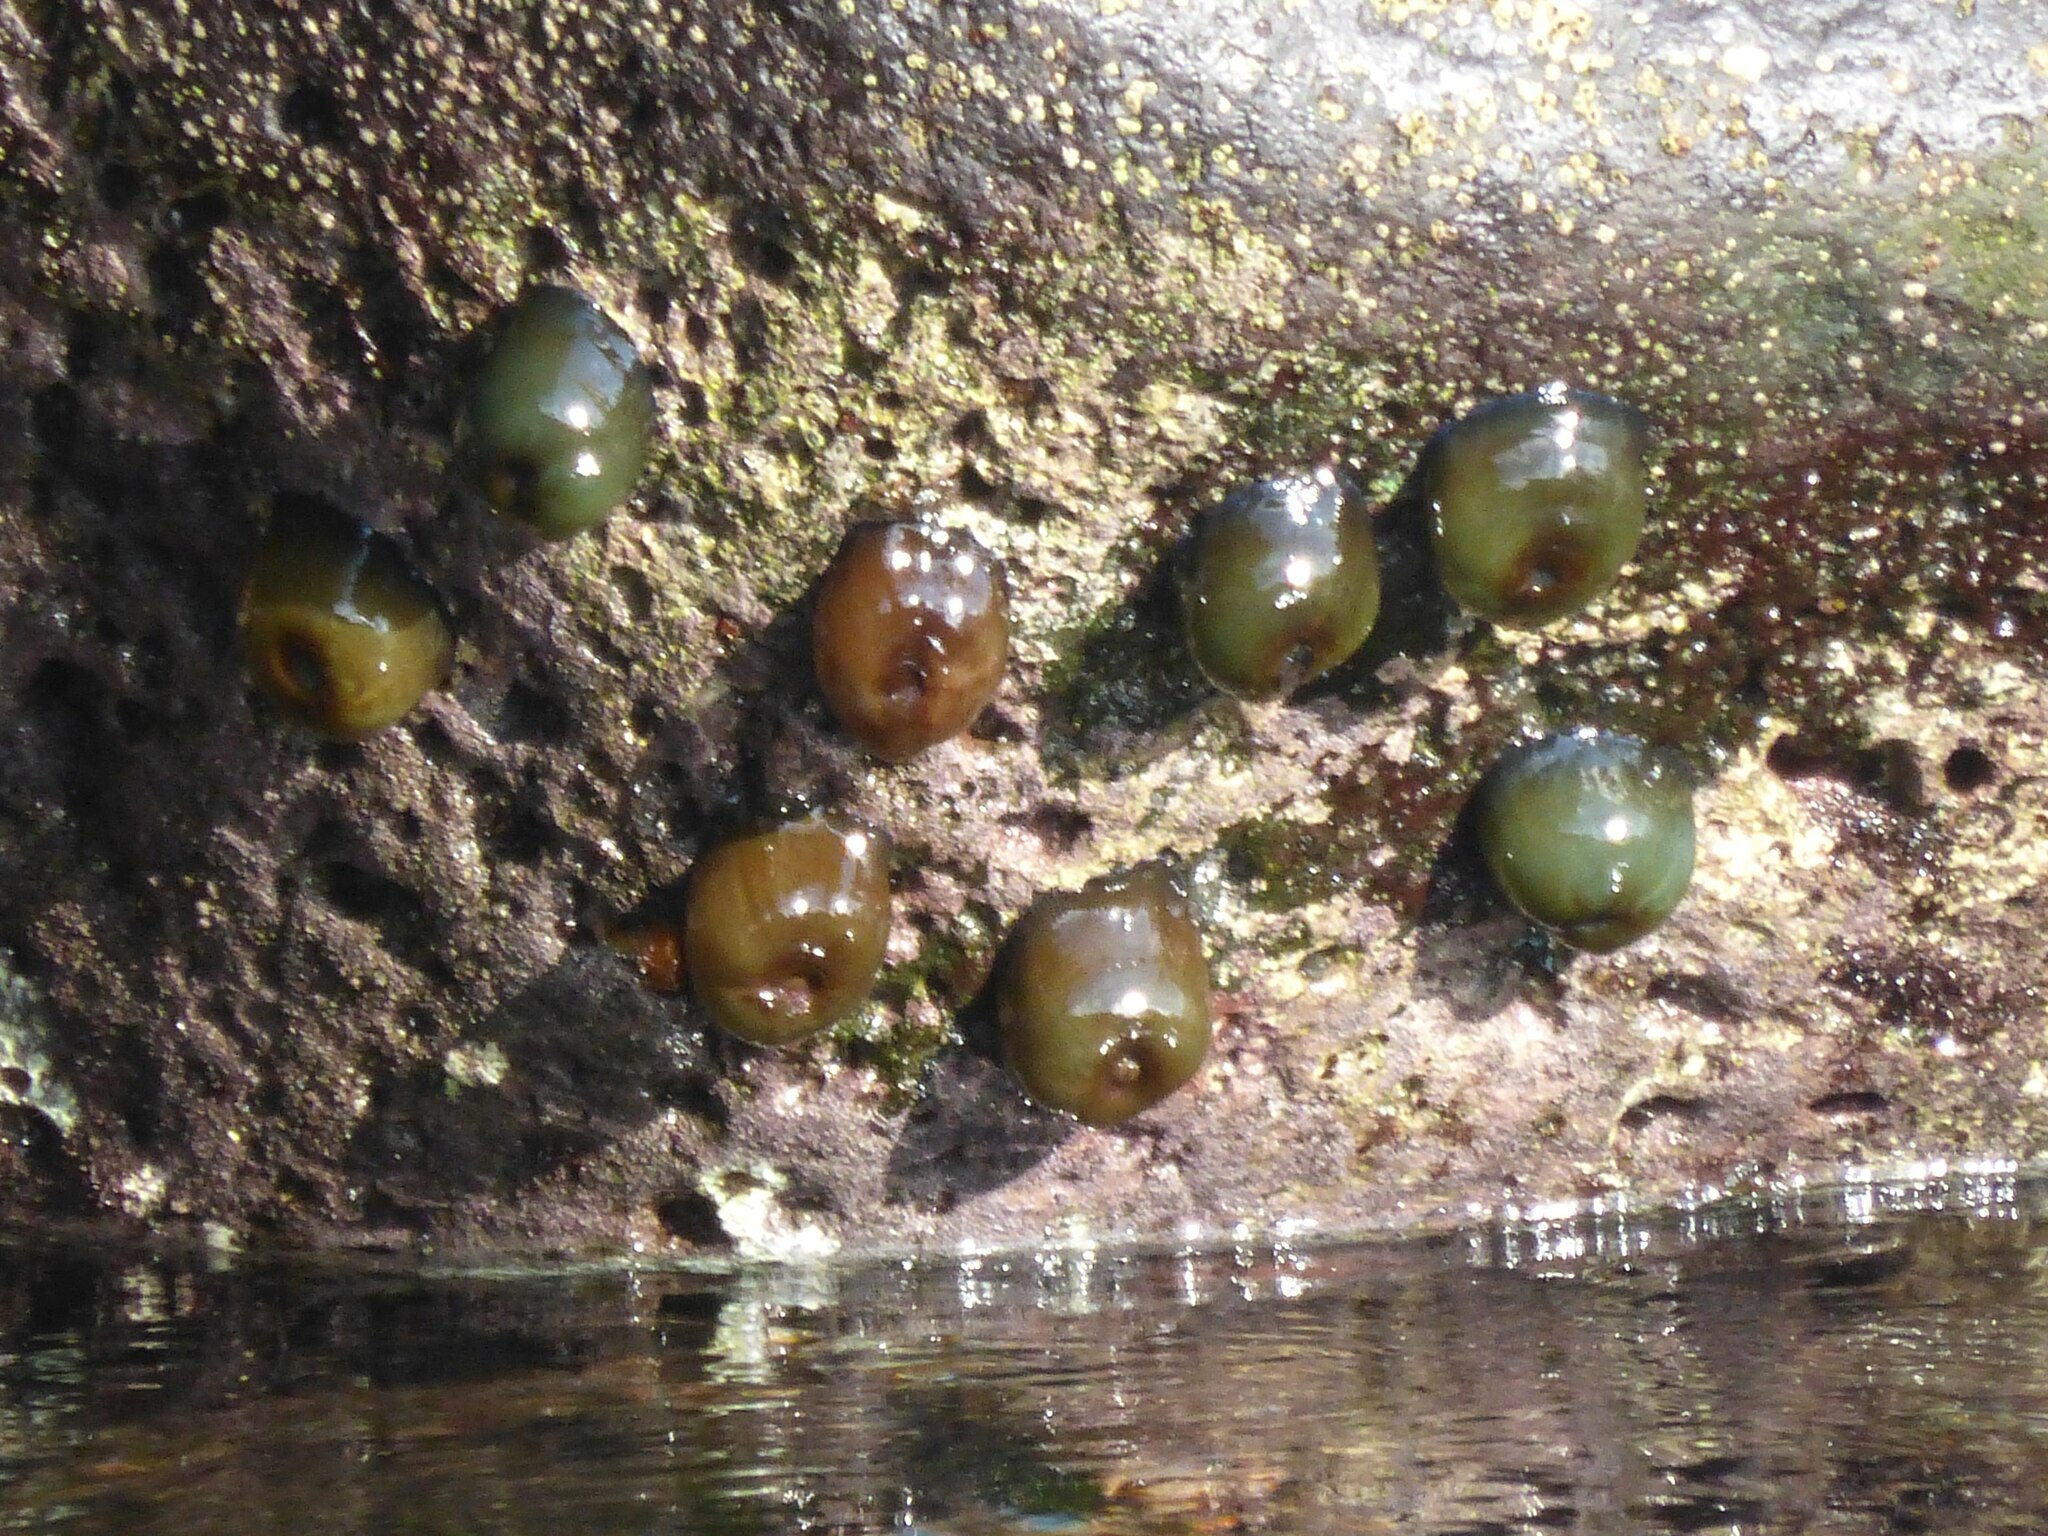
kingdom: Animalia
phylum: Cnidaria
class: Anthozoa
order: Actiniaria
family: Actiniidae
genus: Actinia
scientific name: Actinia equina
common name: Beadlet anemone
